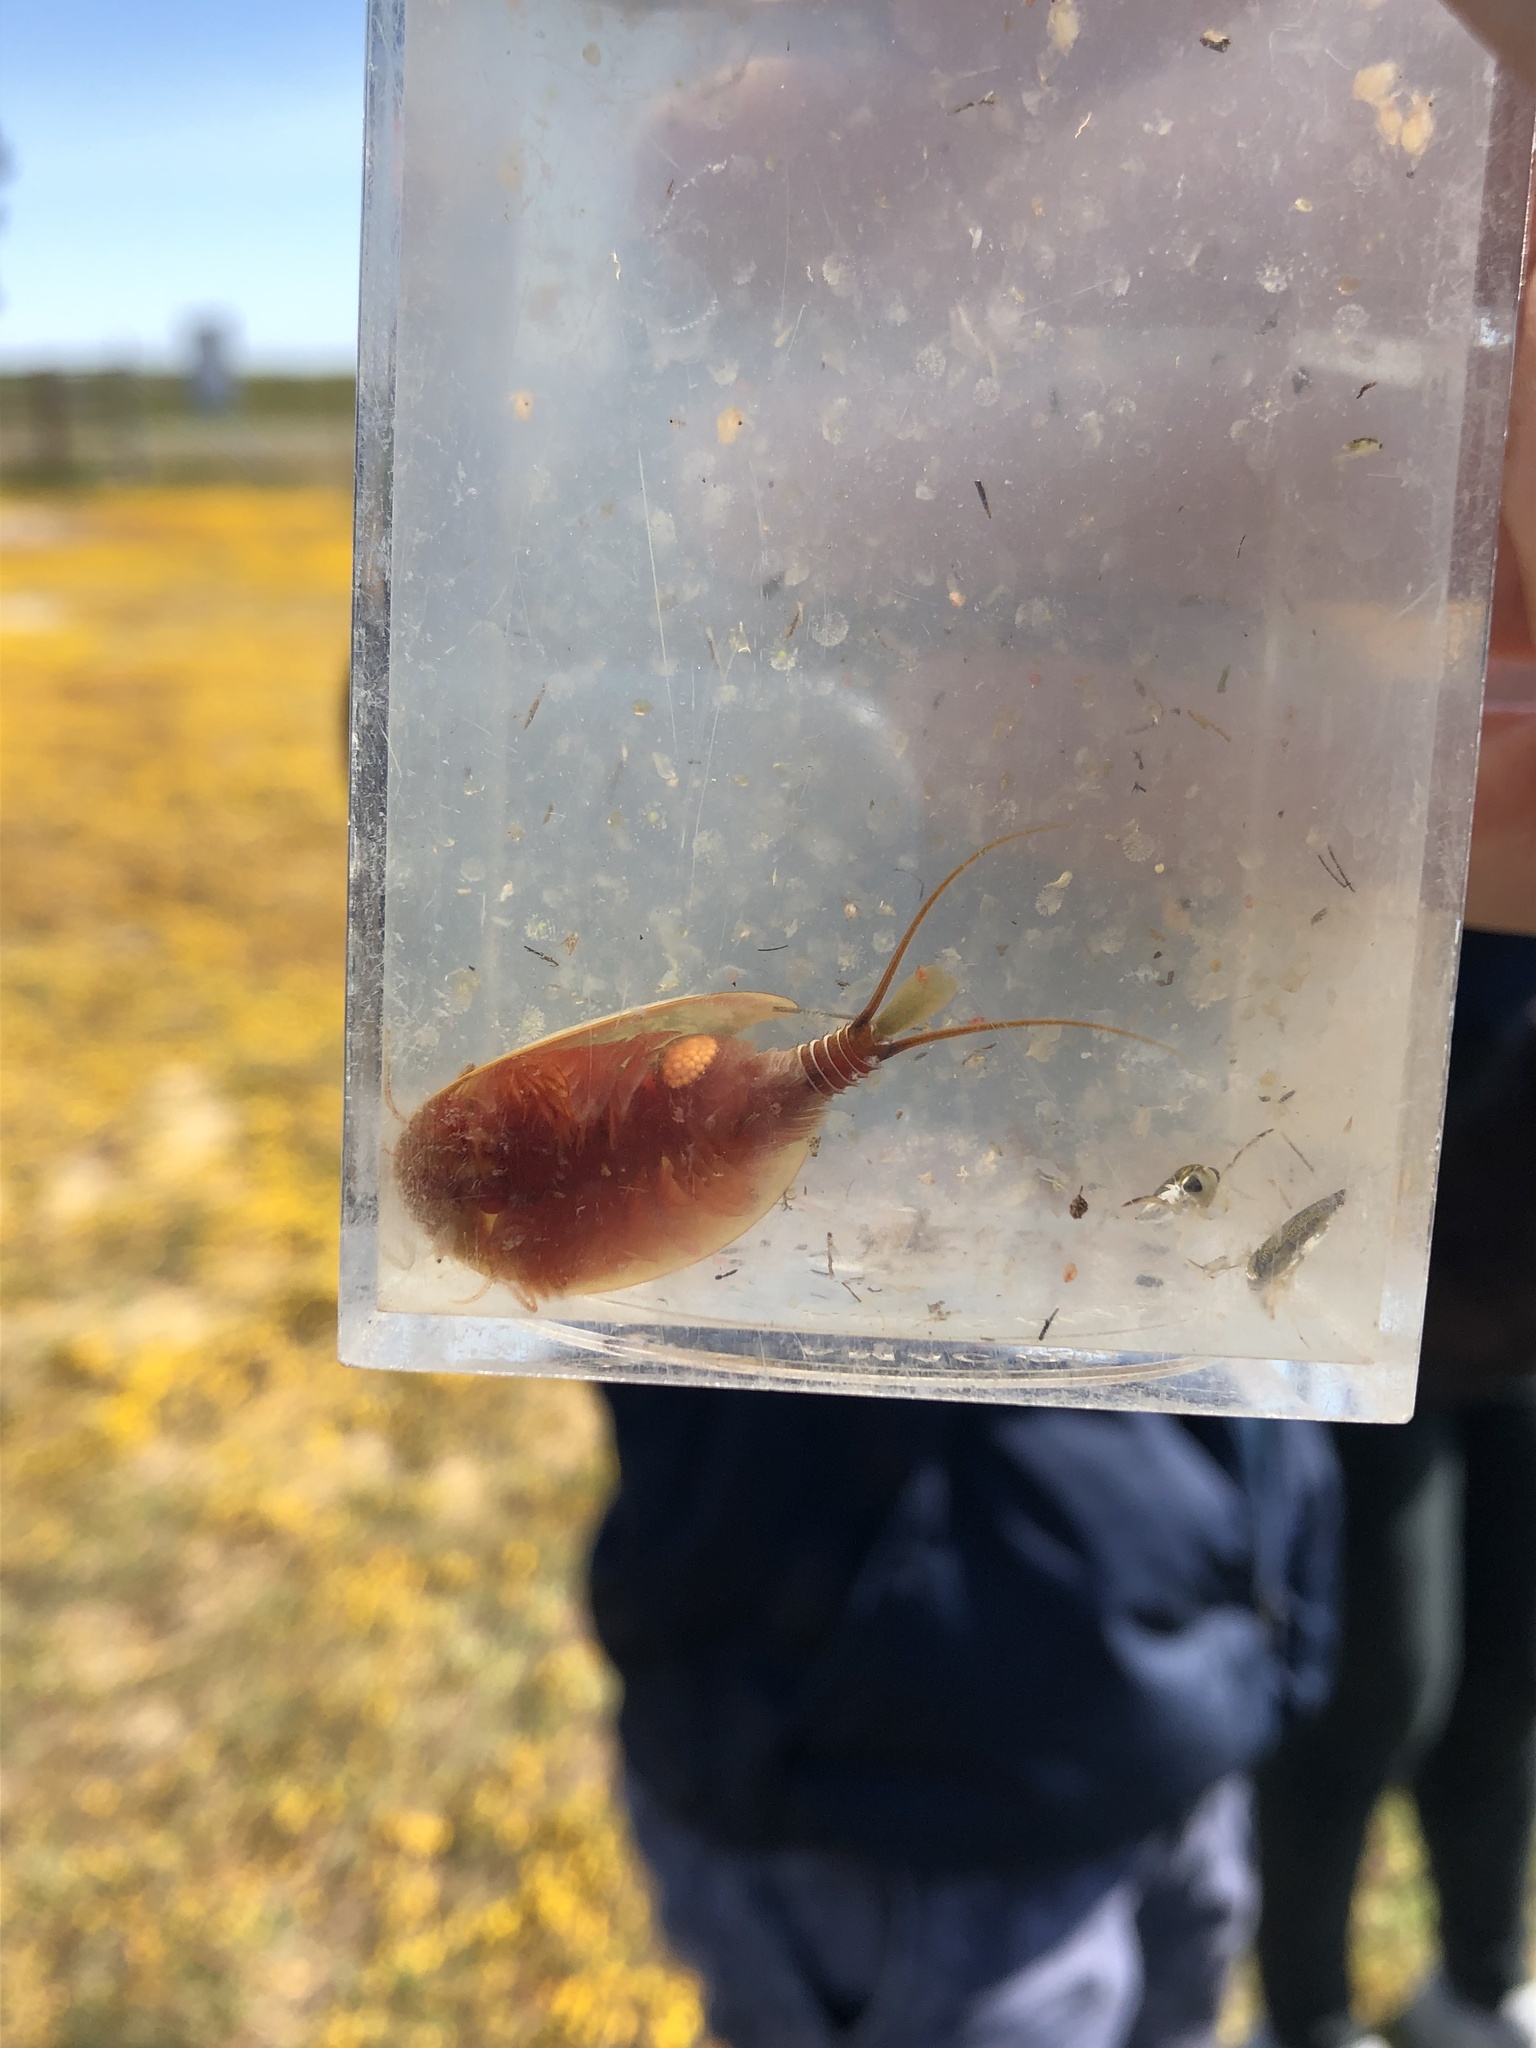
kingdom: Animalia
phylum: Arthropoda
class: Branchiopoda
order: Notostraca
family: Triopsidae
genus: Lepidurus
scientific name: Lepidurus packardi
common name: Vernal pool tadpole shrimp
